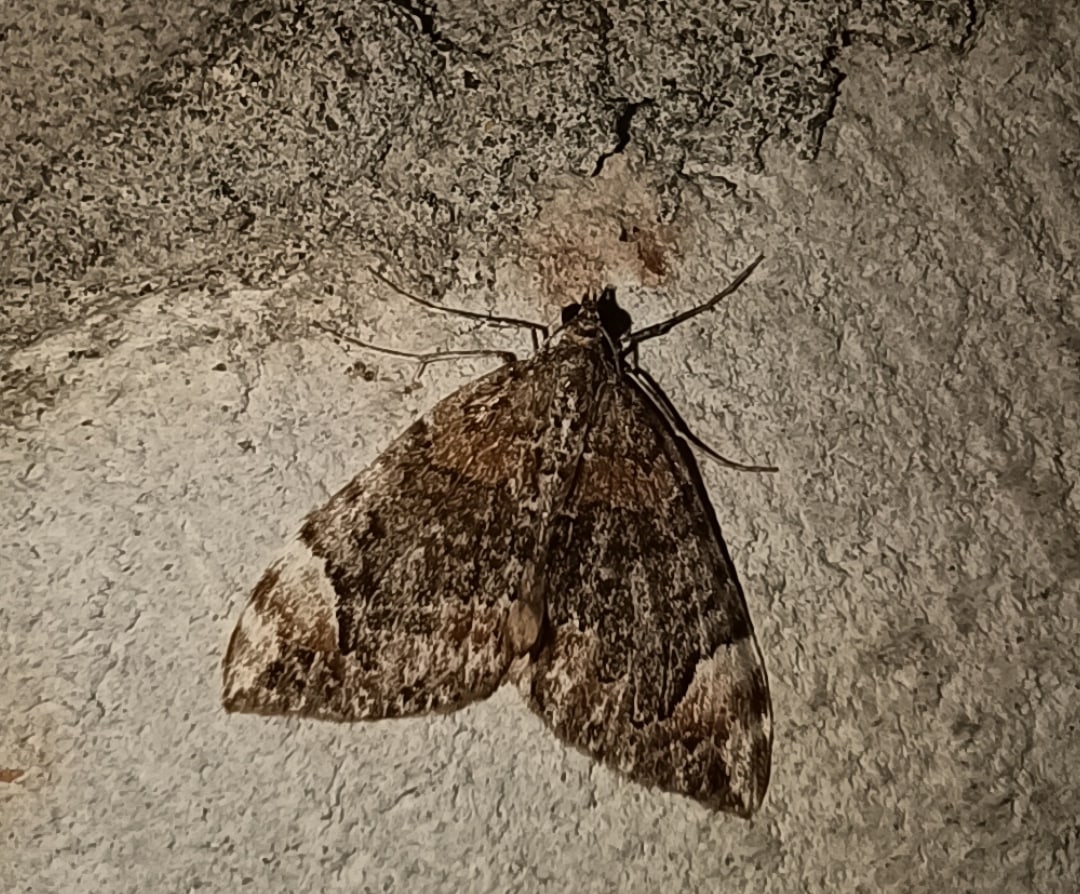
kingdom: Animalia
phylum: Arthropoda
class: Insecta
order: Lepidoptera
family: Geometridae
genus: Dysstroma
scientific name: Dysstroma citrata
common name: Dark marbled carpet
